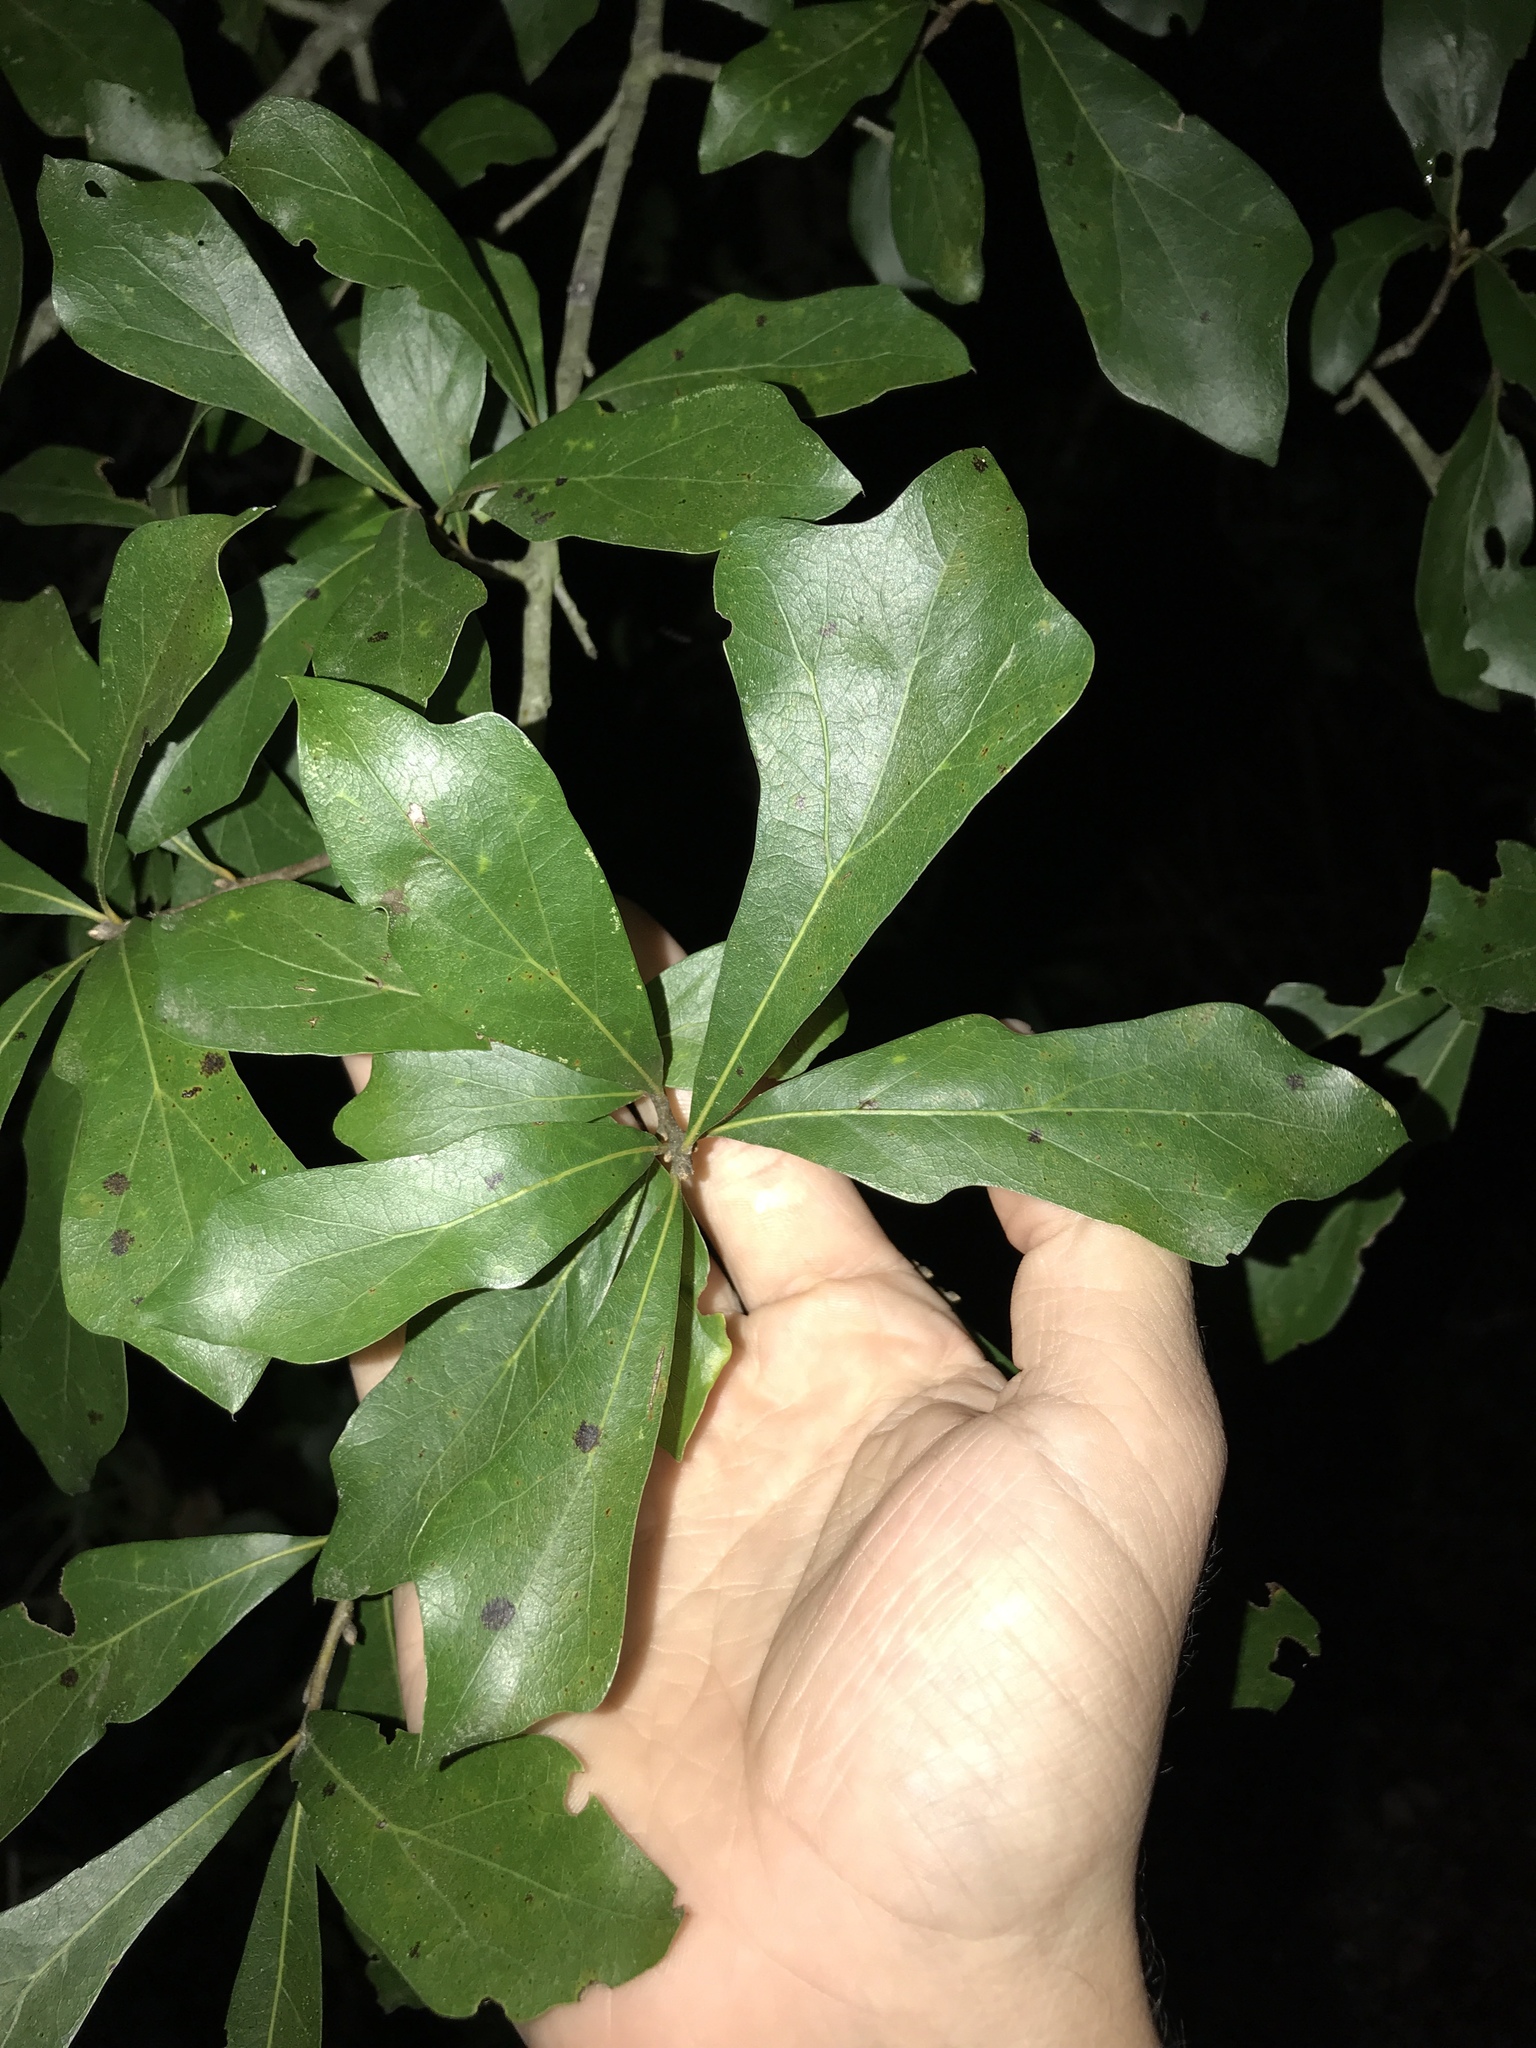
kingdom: Plantae
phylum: Tracheophyta
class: Magnoliopsida
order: Fagales
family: Fagaceae
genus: Quercus
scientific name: Quercus nigra
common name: Water oak
